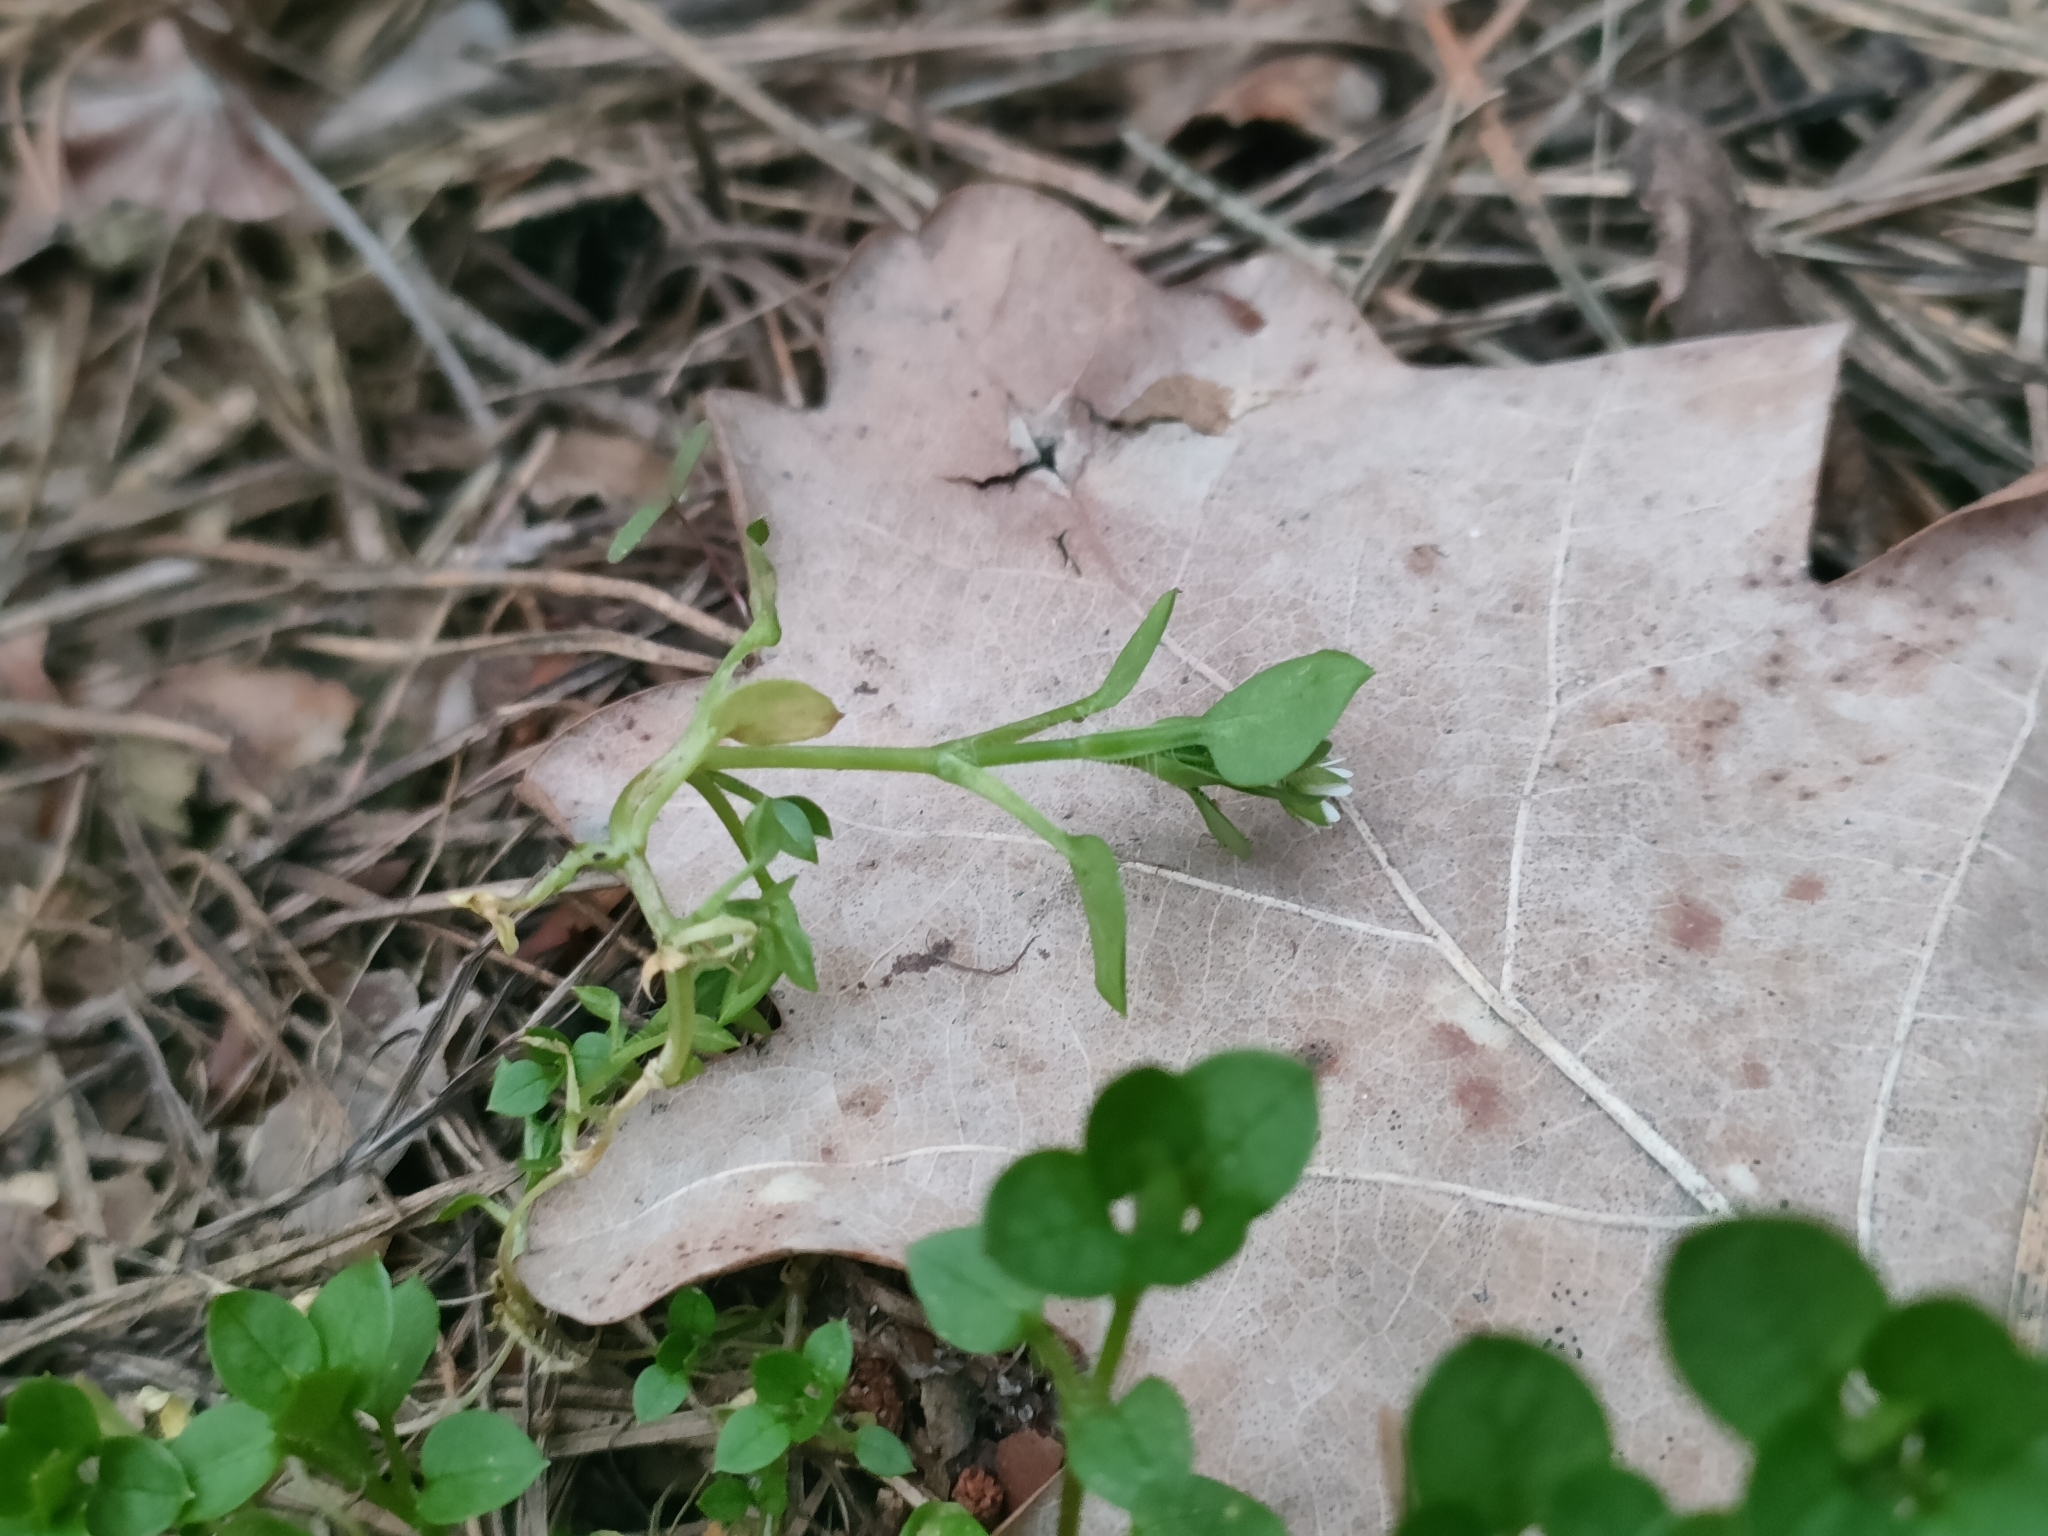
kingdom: Plantae
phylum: Tracheophyta
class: Magnoliopsida
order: Caryophyllales
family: Caryophyllaceae
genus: Stellaria
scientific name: Stellaria media
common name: Common chickweed
